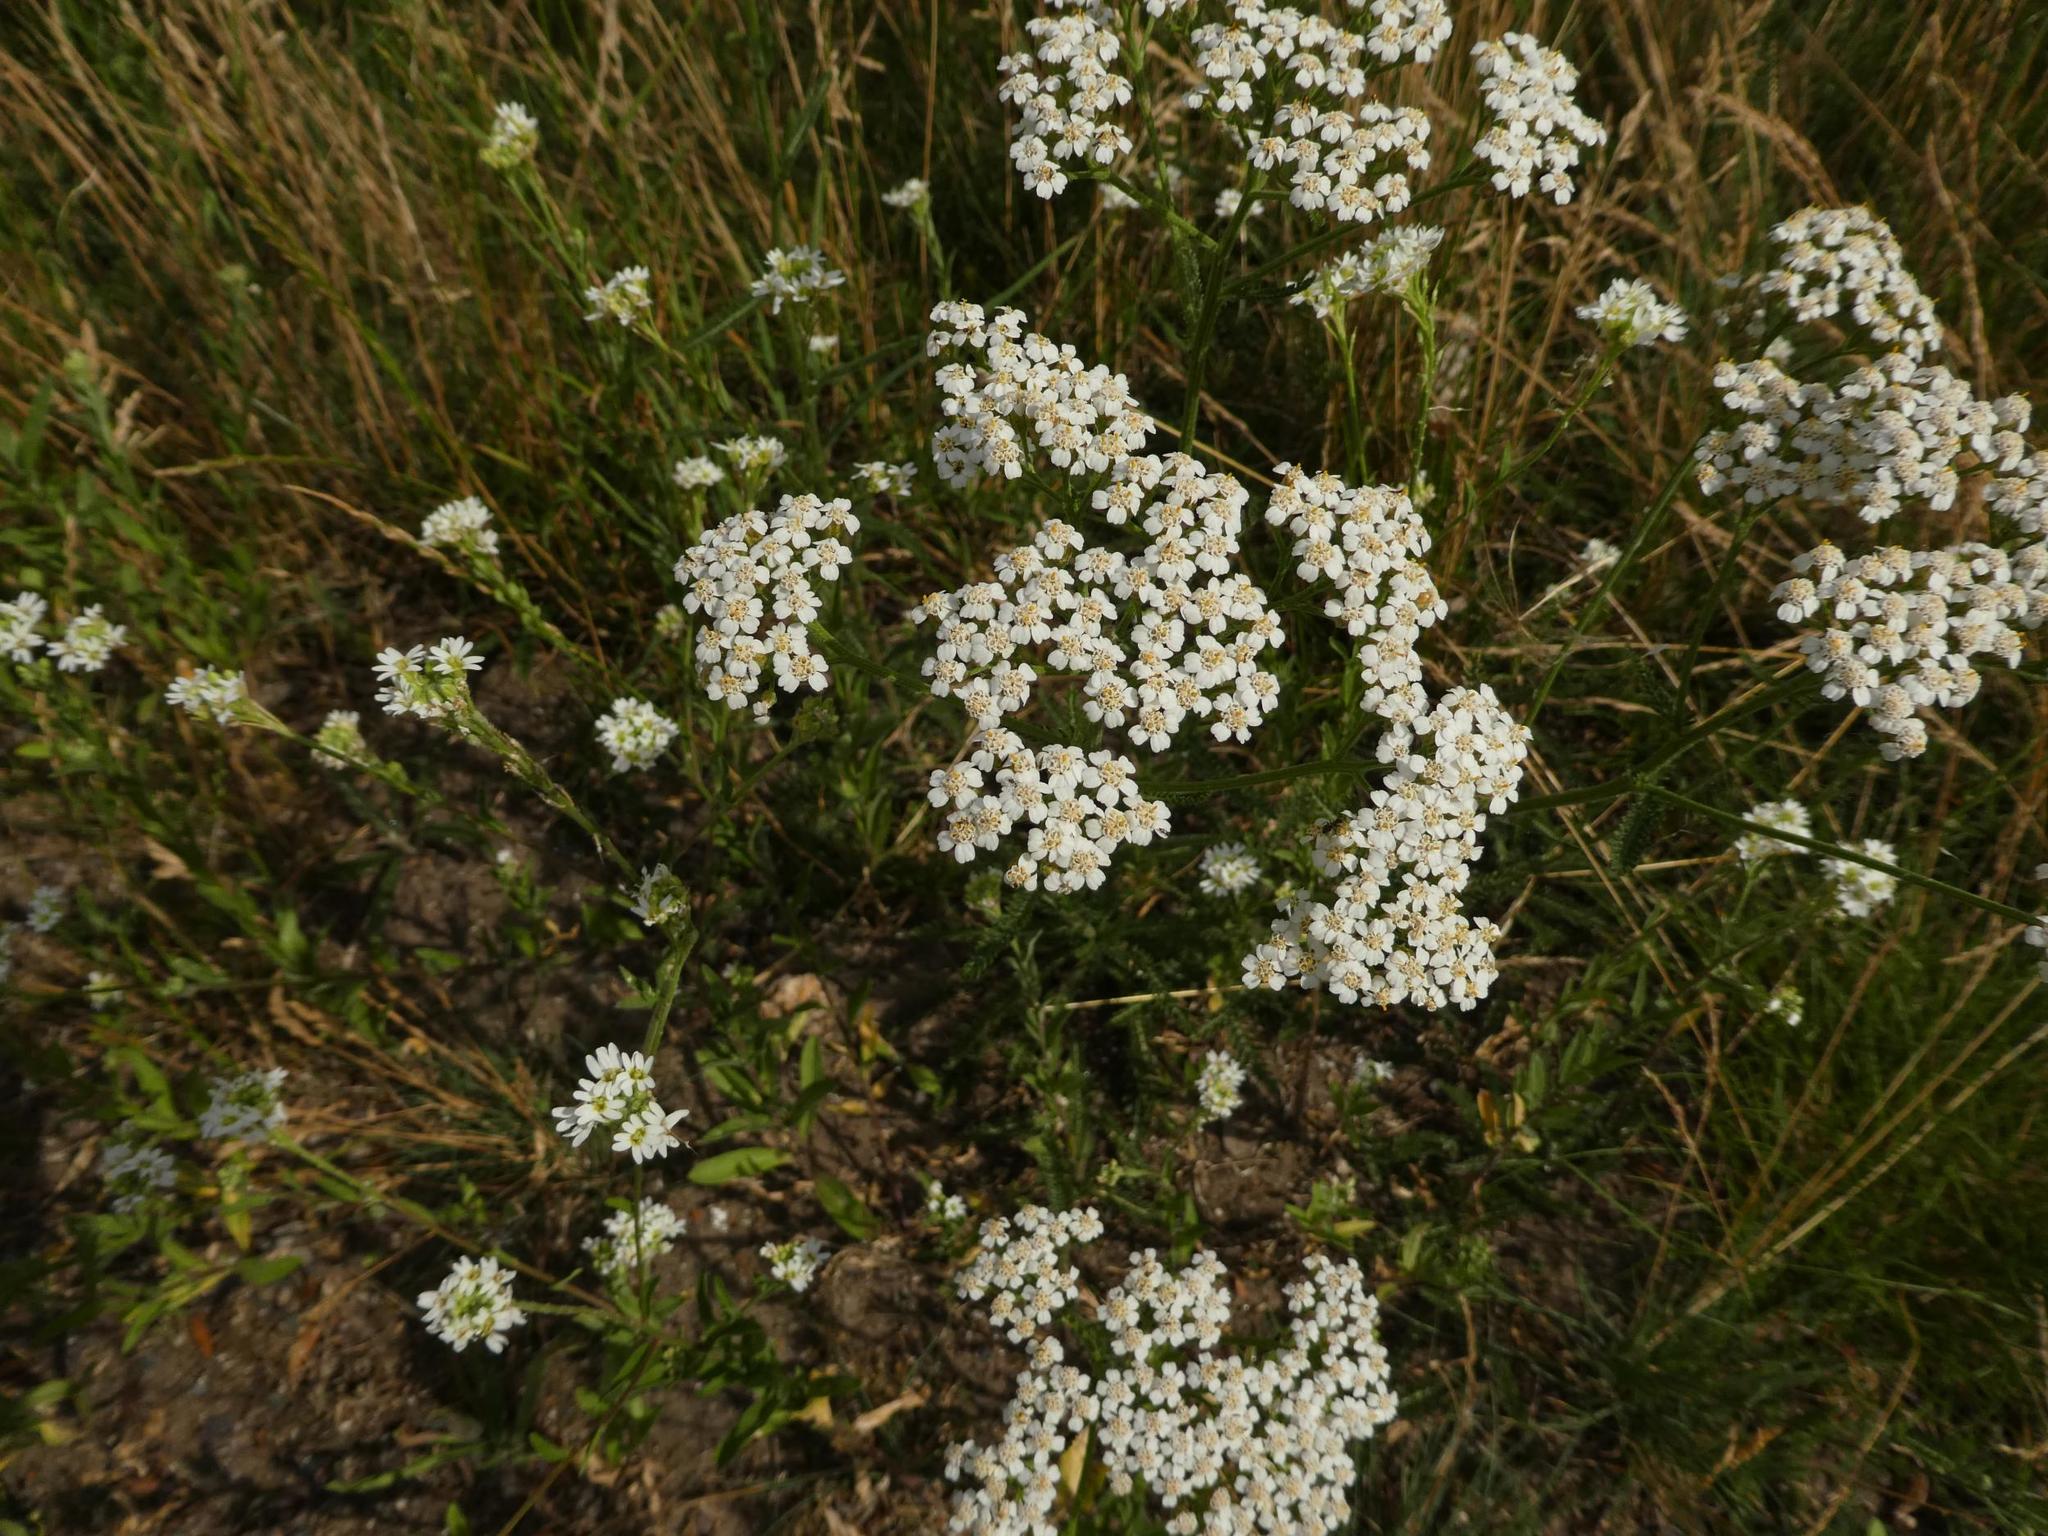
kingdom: Plantae
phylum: Tracheophyta
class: Magnoliopsida
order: Asterales
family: Asteraceae
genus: Achillea
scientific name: Achillea millefolium
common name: Yarrow
